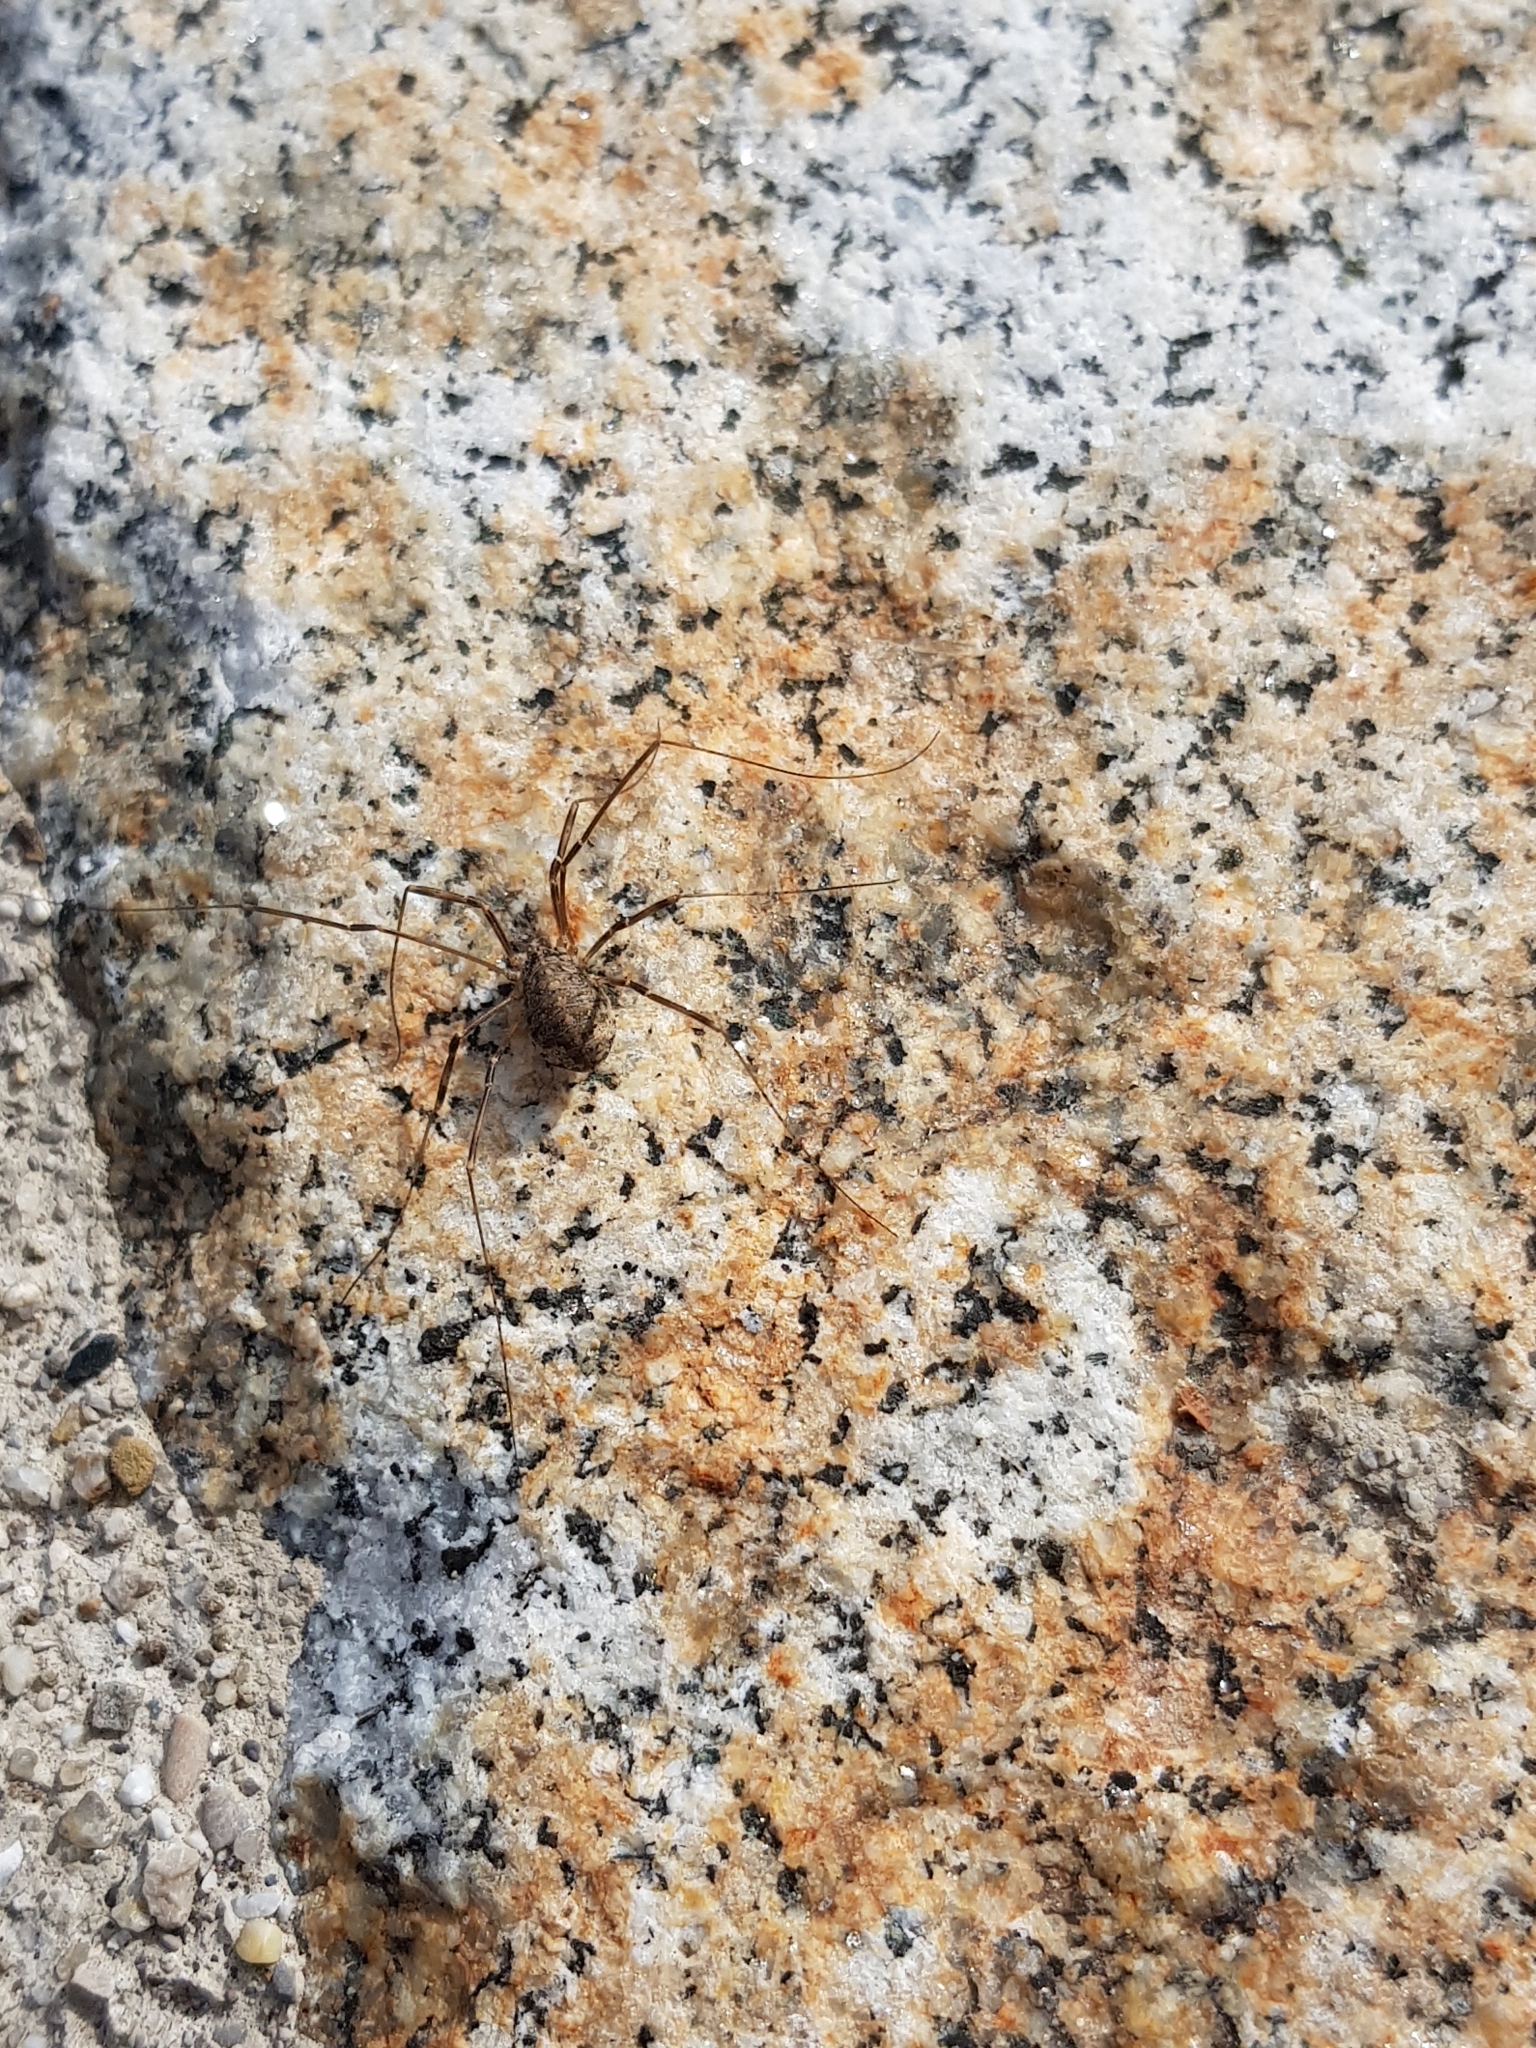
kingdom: Animalia
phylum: Arthropoda
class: Arachnida
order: Opiliones
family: Phalangiidae
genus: Opilio
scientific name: Opilio saxatilis
